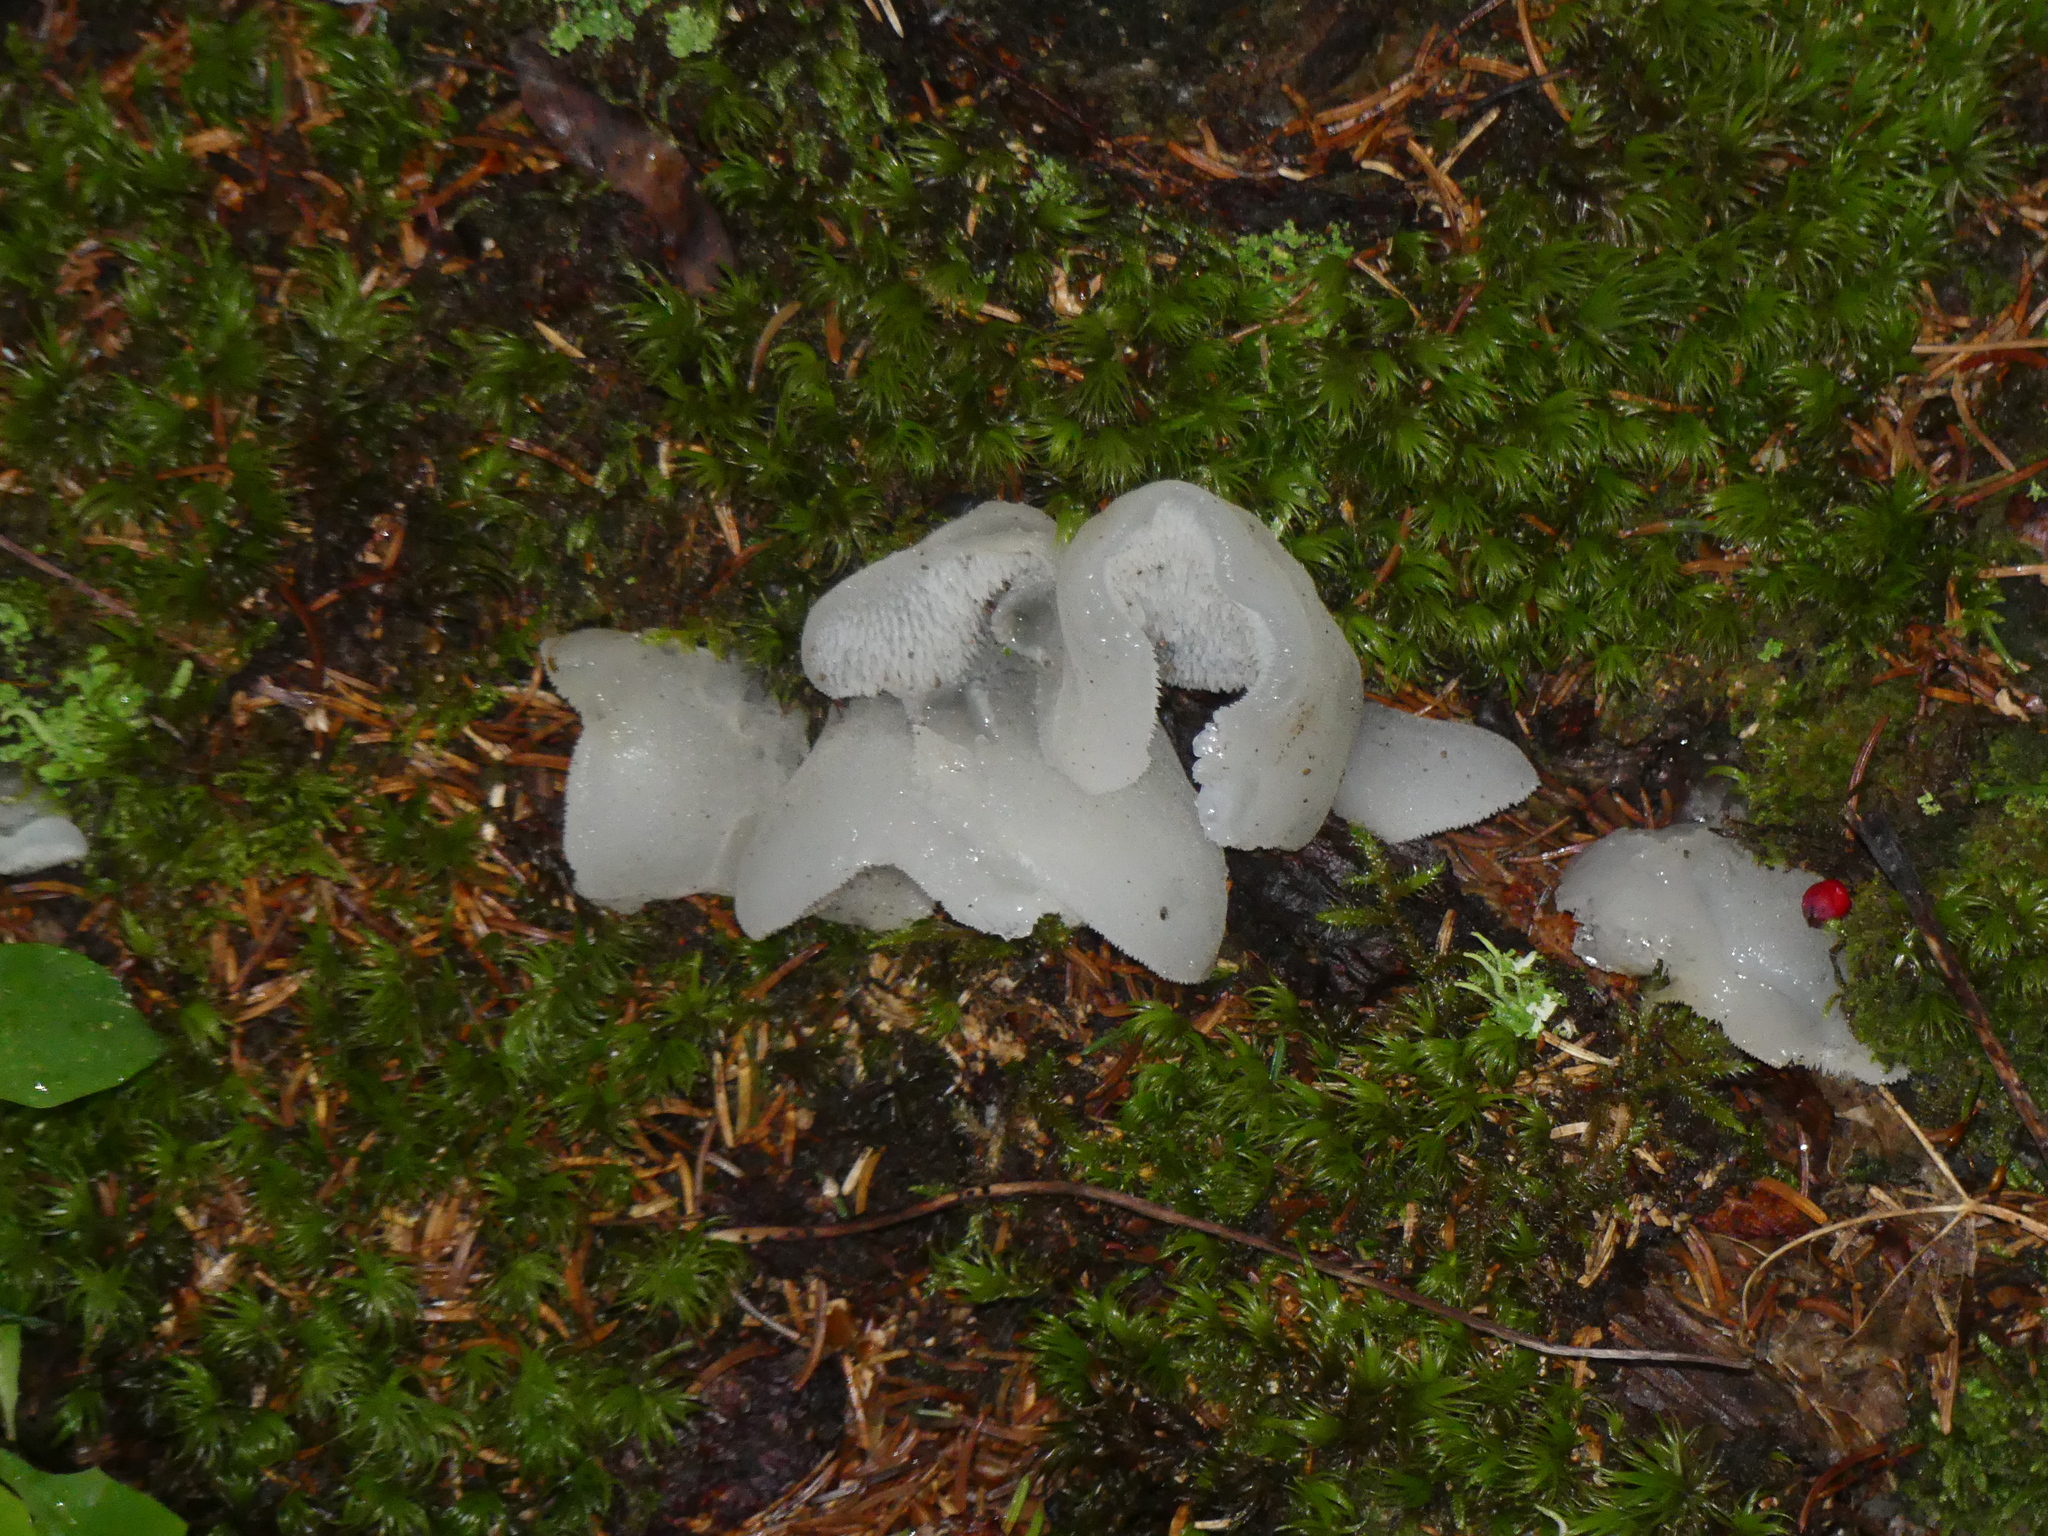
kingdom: Fungi
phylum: Basidiomycota
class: Agaricomycetes
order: Auriculariales
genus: Pseudohydnum
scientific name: Pseudohydnum gelatinosum
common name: Jelly tongue
